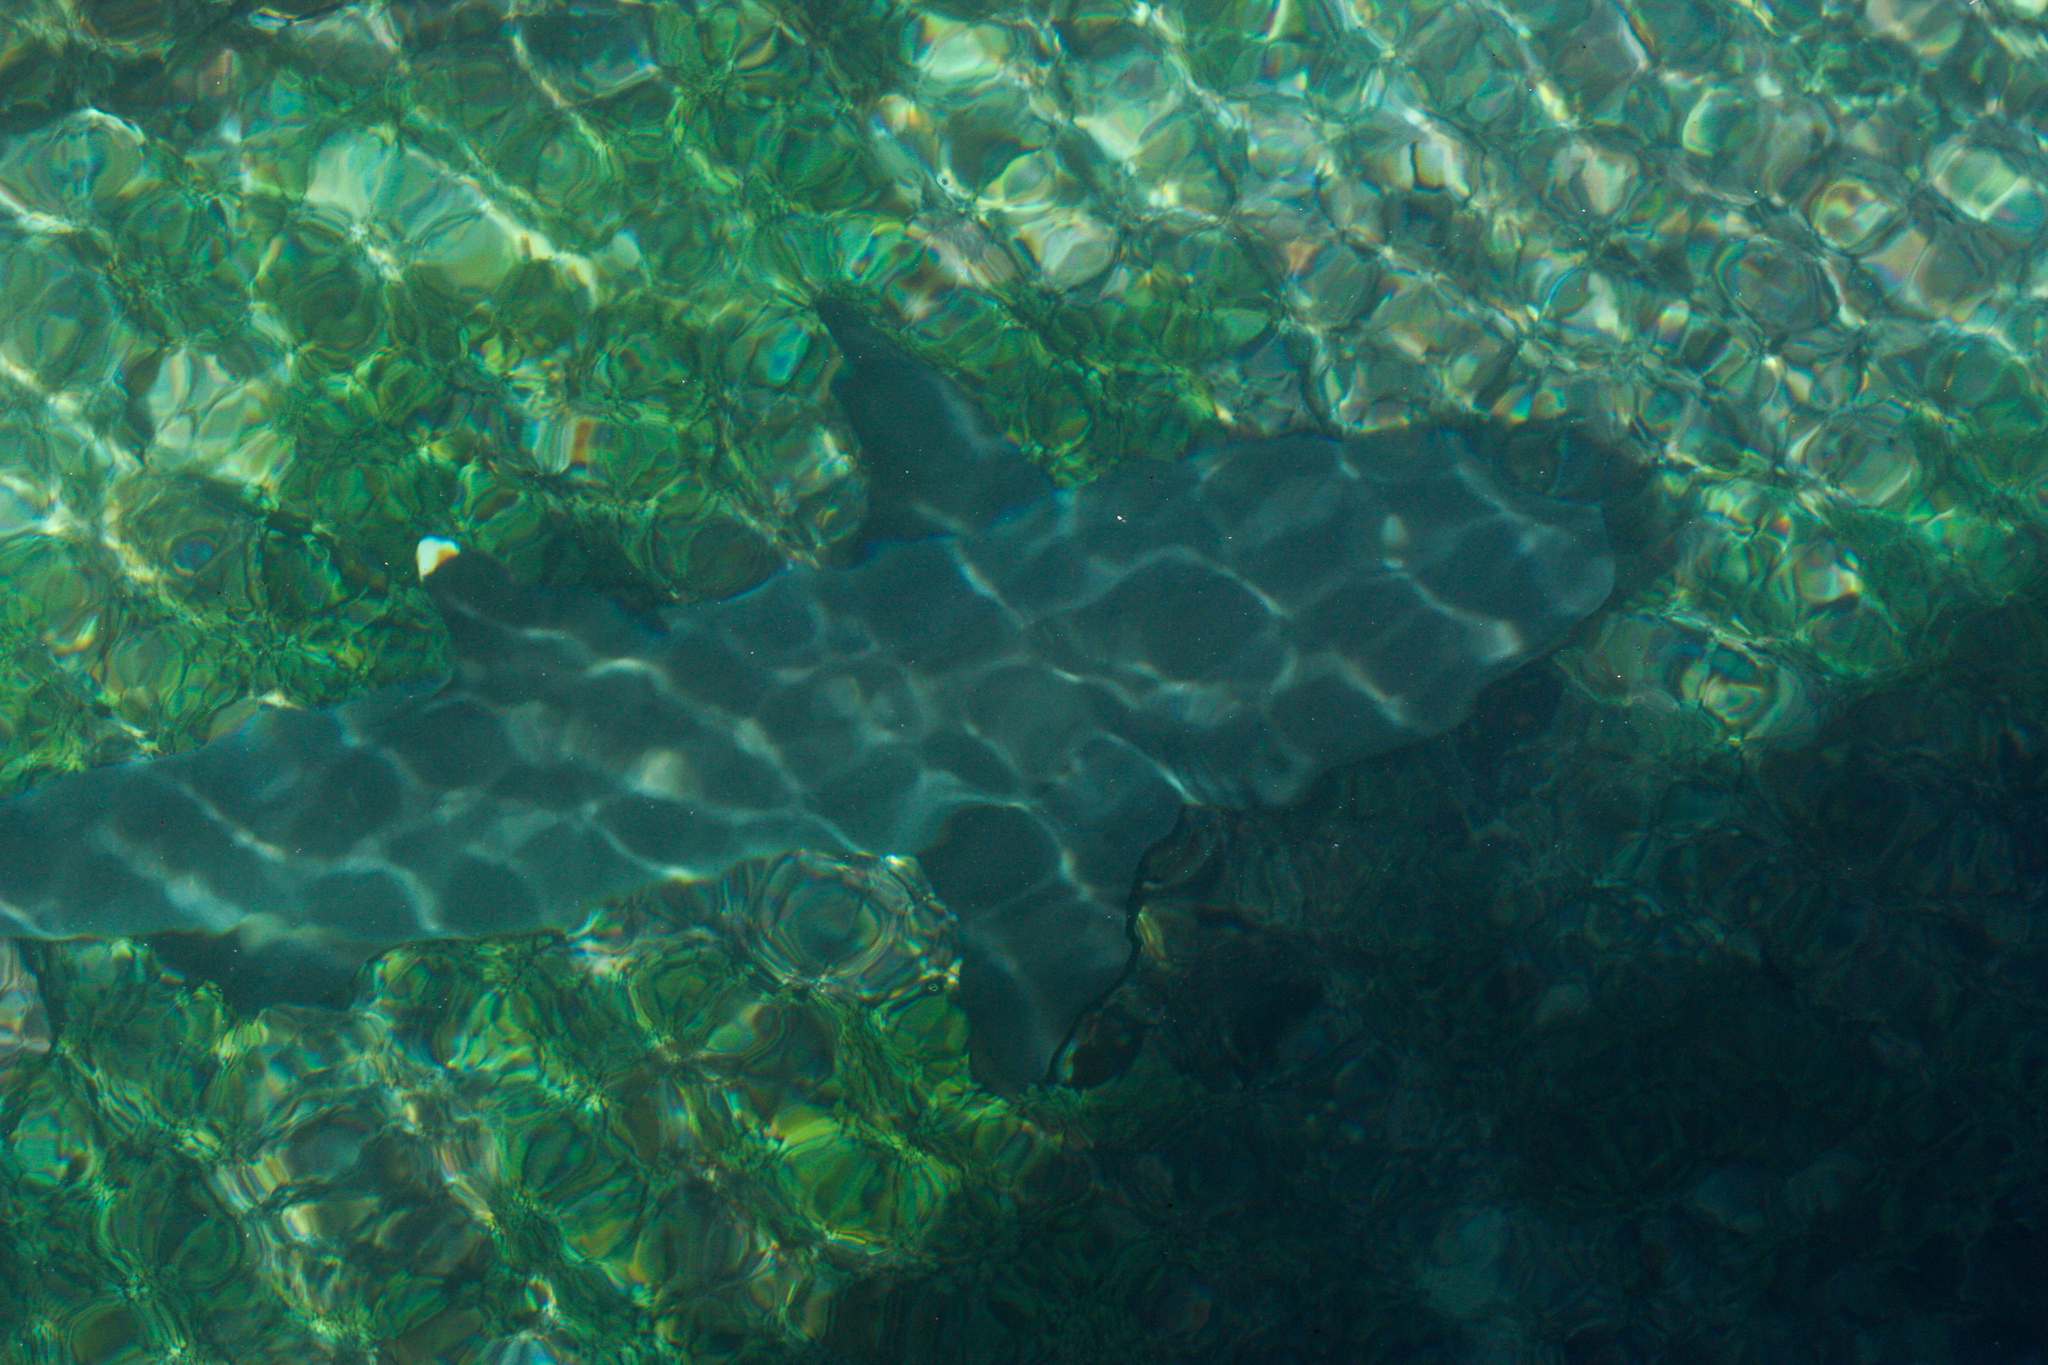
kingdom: Animalia
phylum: Chordata
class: Elasmobranchii
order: Carcharhiniformes
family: Carcharhinidae
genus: Triaenodon
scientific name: Triaenodon obesus
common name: Whitetip reef shark
